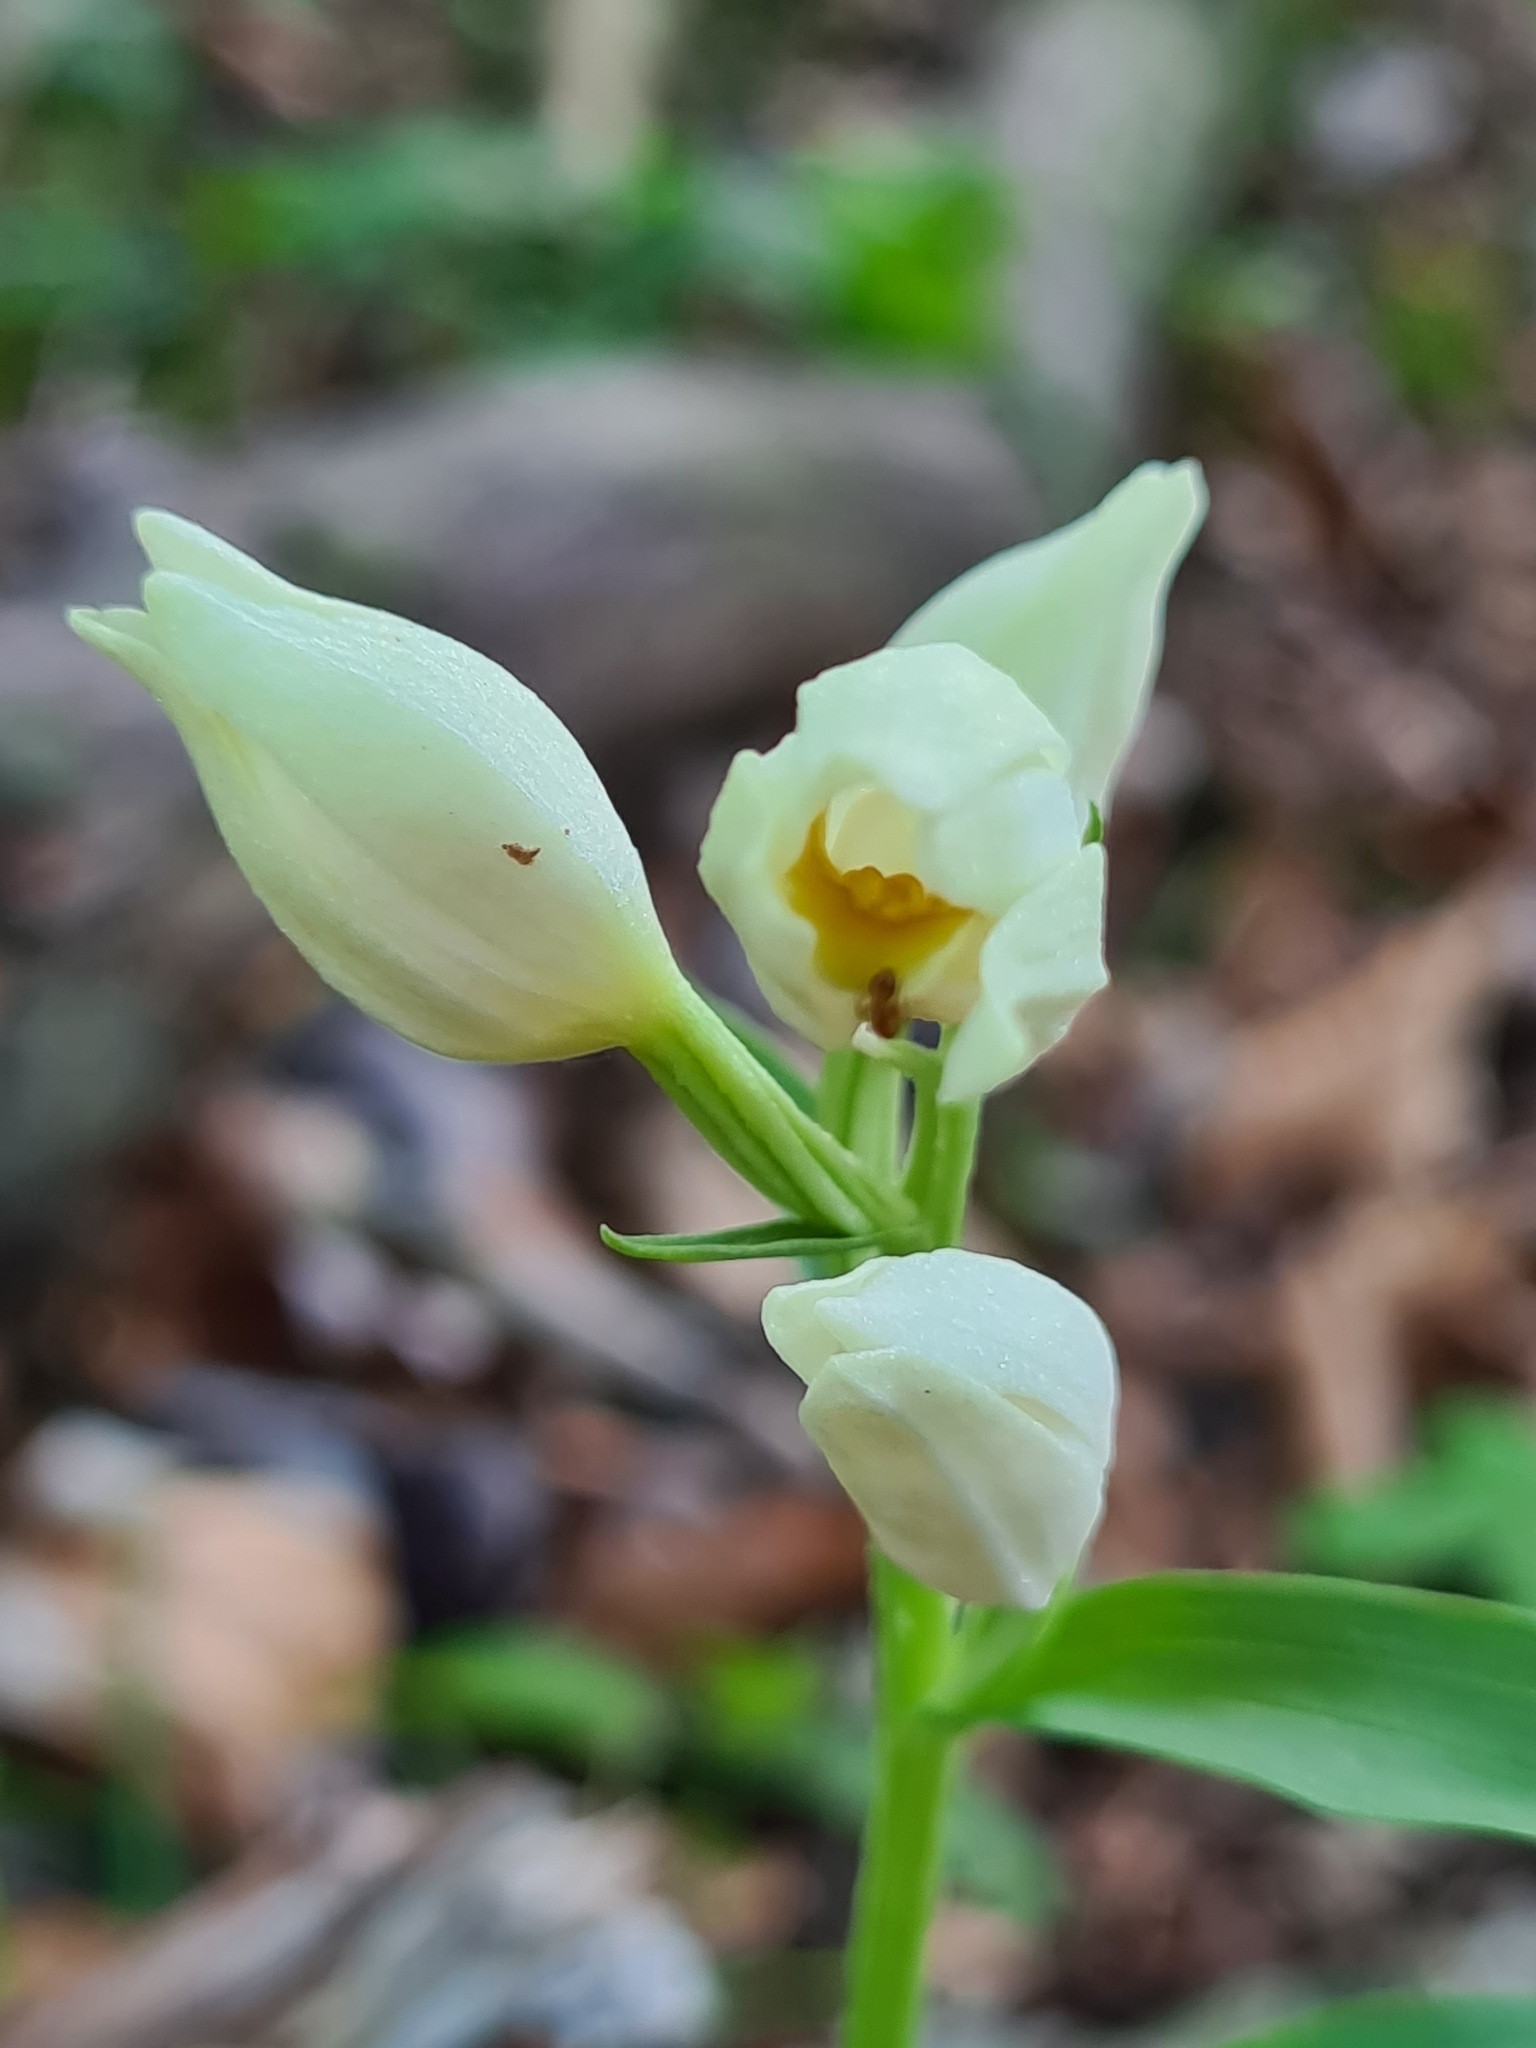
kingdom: Plantae
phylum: Tracheophyta
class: Liliopsida
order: Asparagales
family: Orchidaceae
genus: Cephalanthera
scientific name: Cephalanthera damasonium
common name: White helleborine
